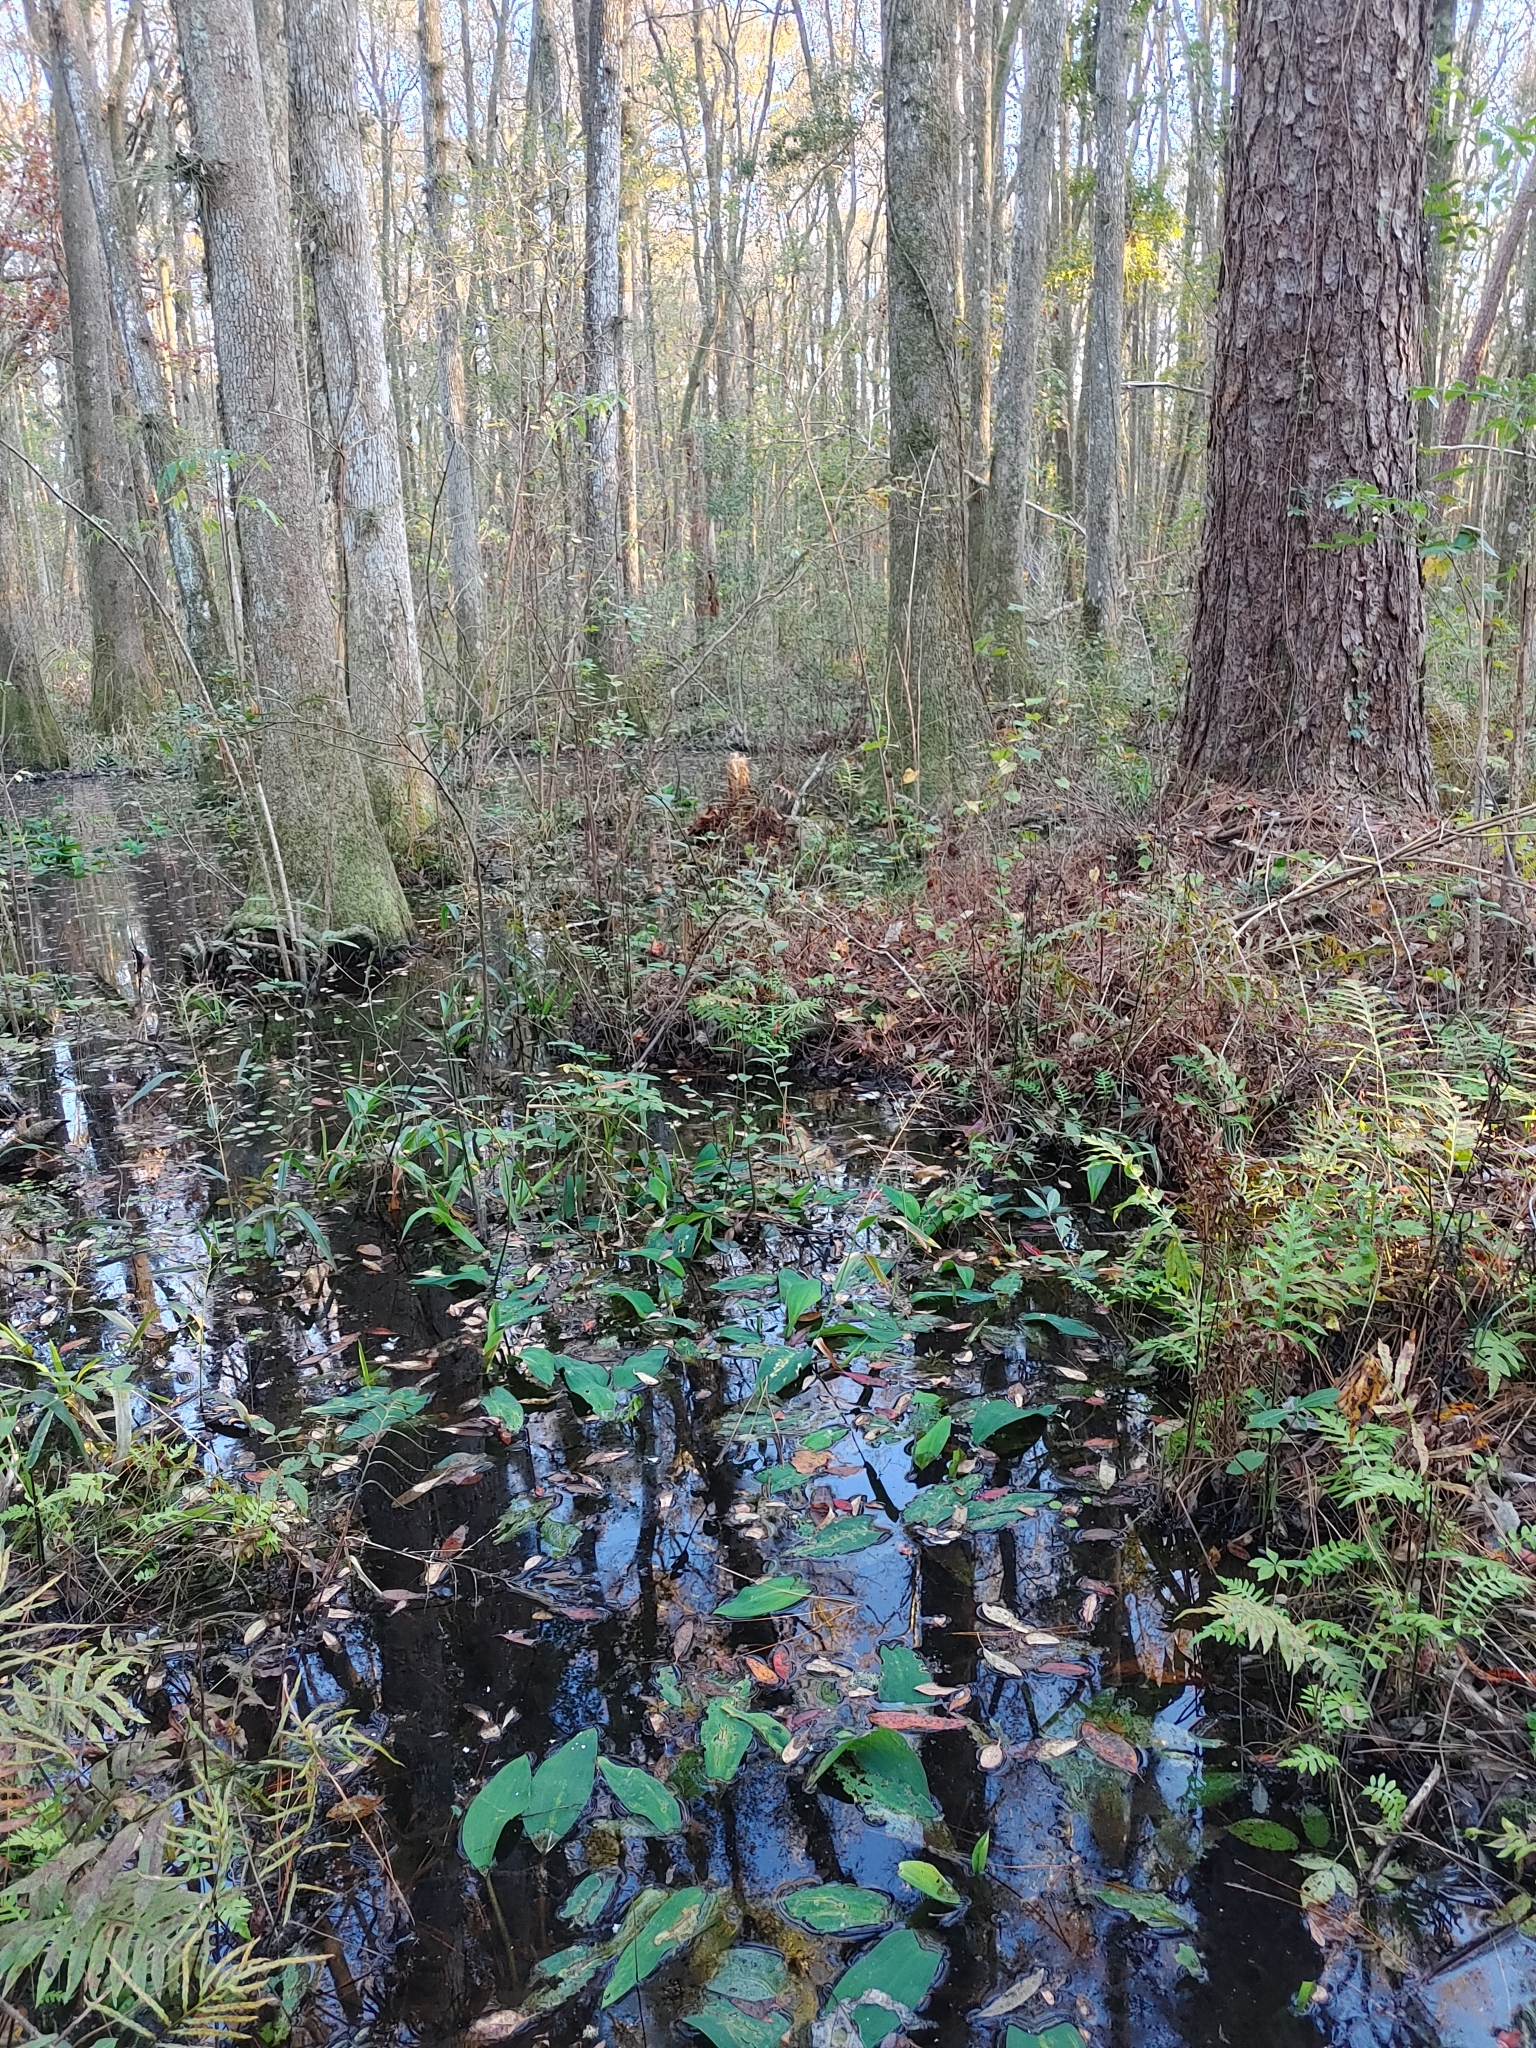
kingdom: Plantae
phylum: Tracheophyta
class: Liliopsida
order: Alismatales
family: Araceae
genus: Orontium
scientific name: Orontium aquaticum
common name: Golden-club
